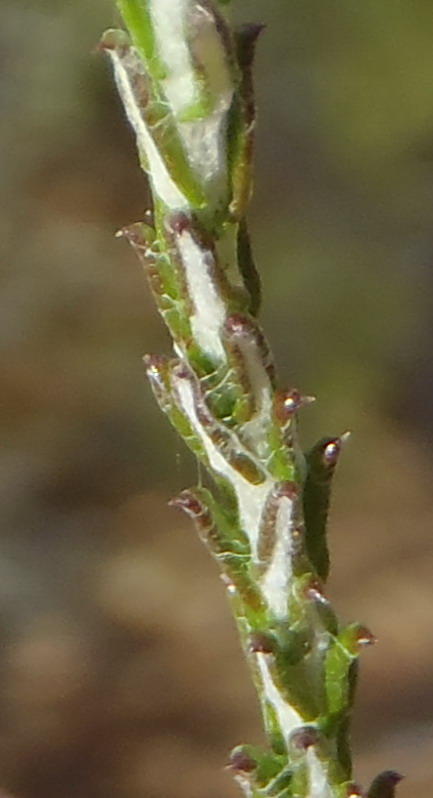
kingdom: Plantae
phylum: Tracheophyta
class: Magnoliopsida
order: Asterales
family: Asteraceae
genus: Helichrysum
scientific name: Helichrysum teretifolium
